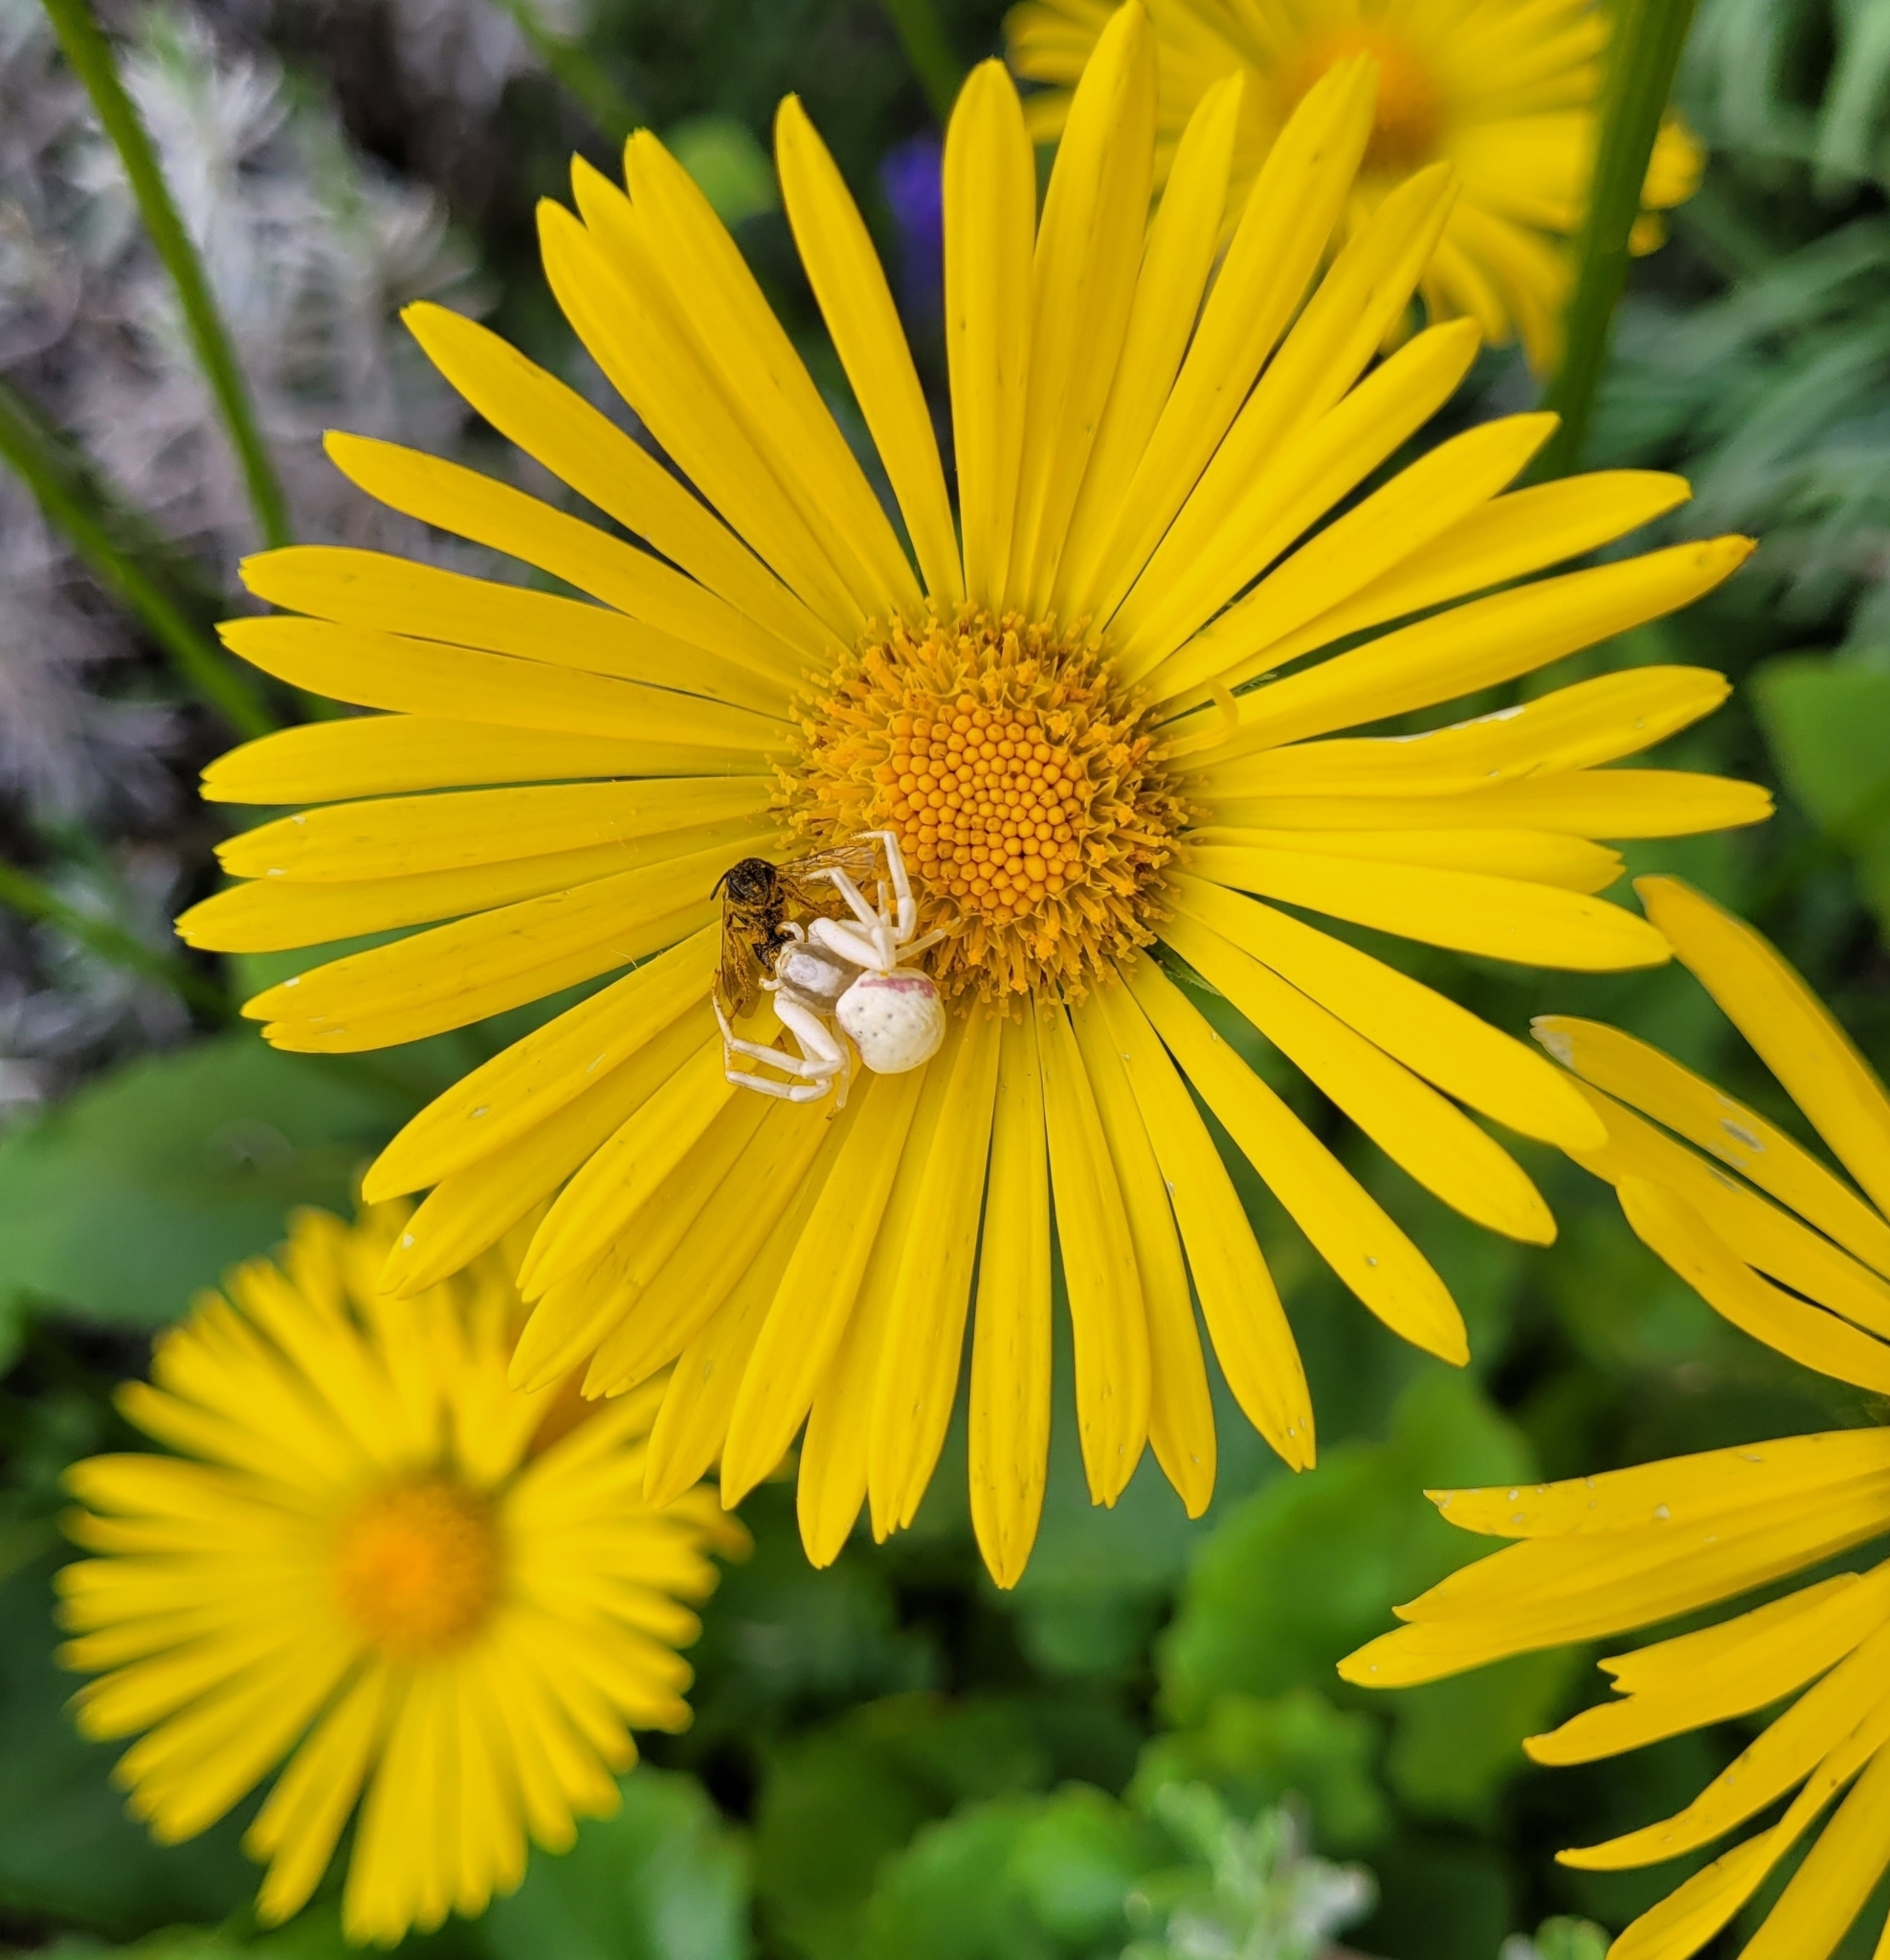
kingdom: Animalia
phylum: Arthropoda
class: Arachnida
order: Araneae
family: Thomisidae
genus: Misumena
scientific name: Misumena vatia
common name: Goldenrod crab spider
